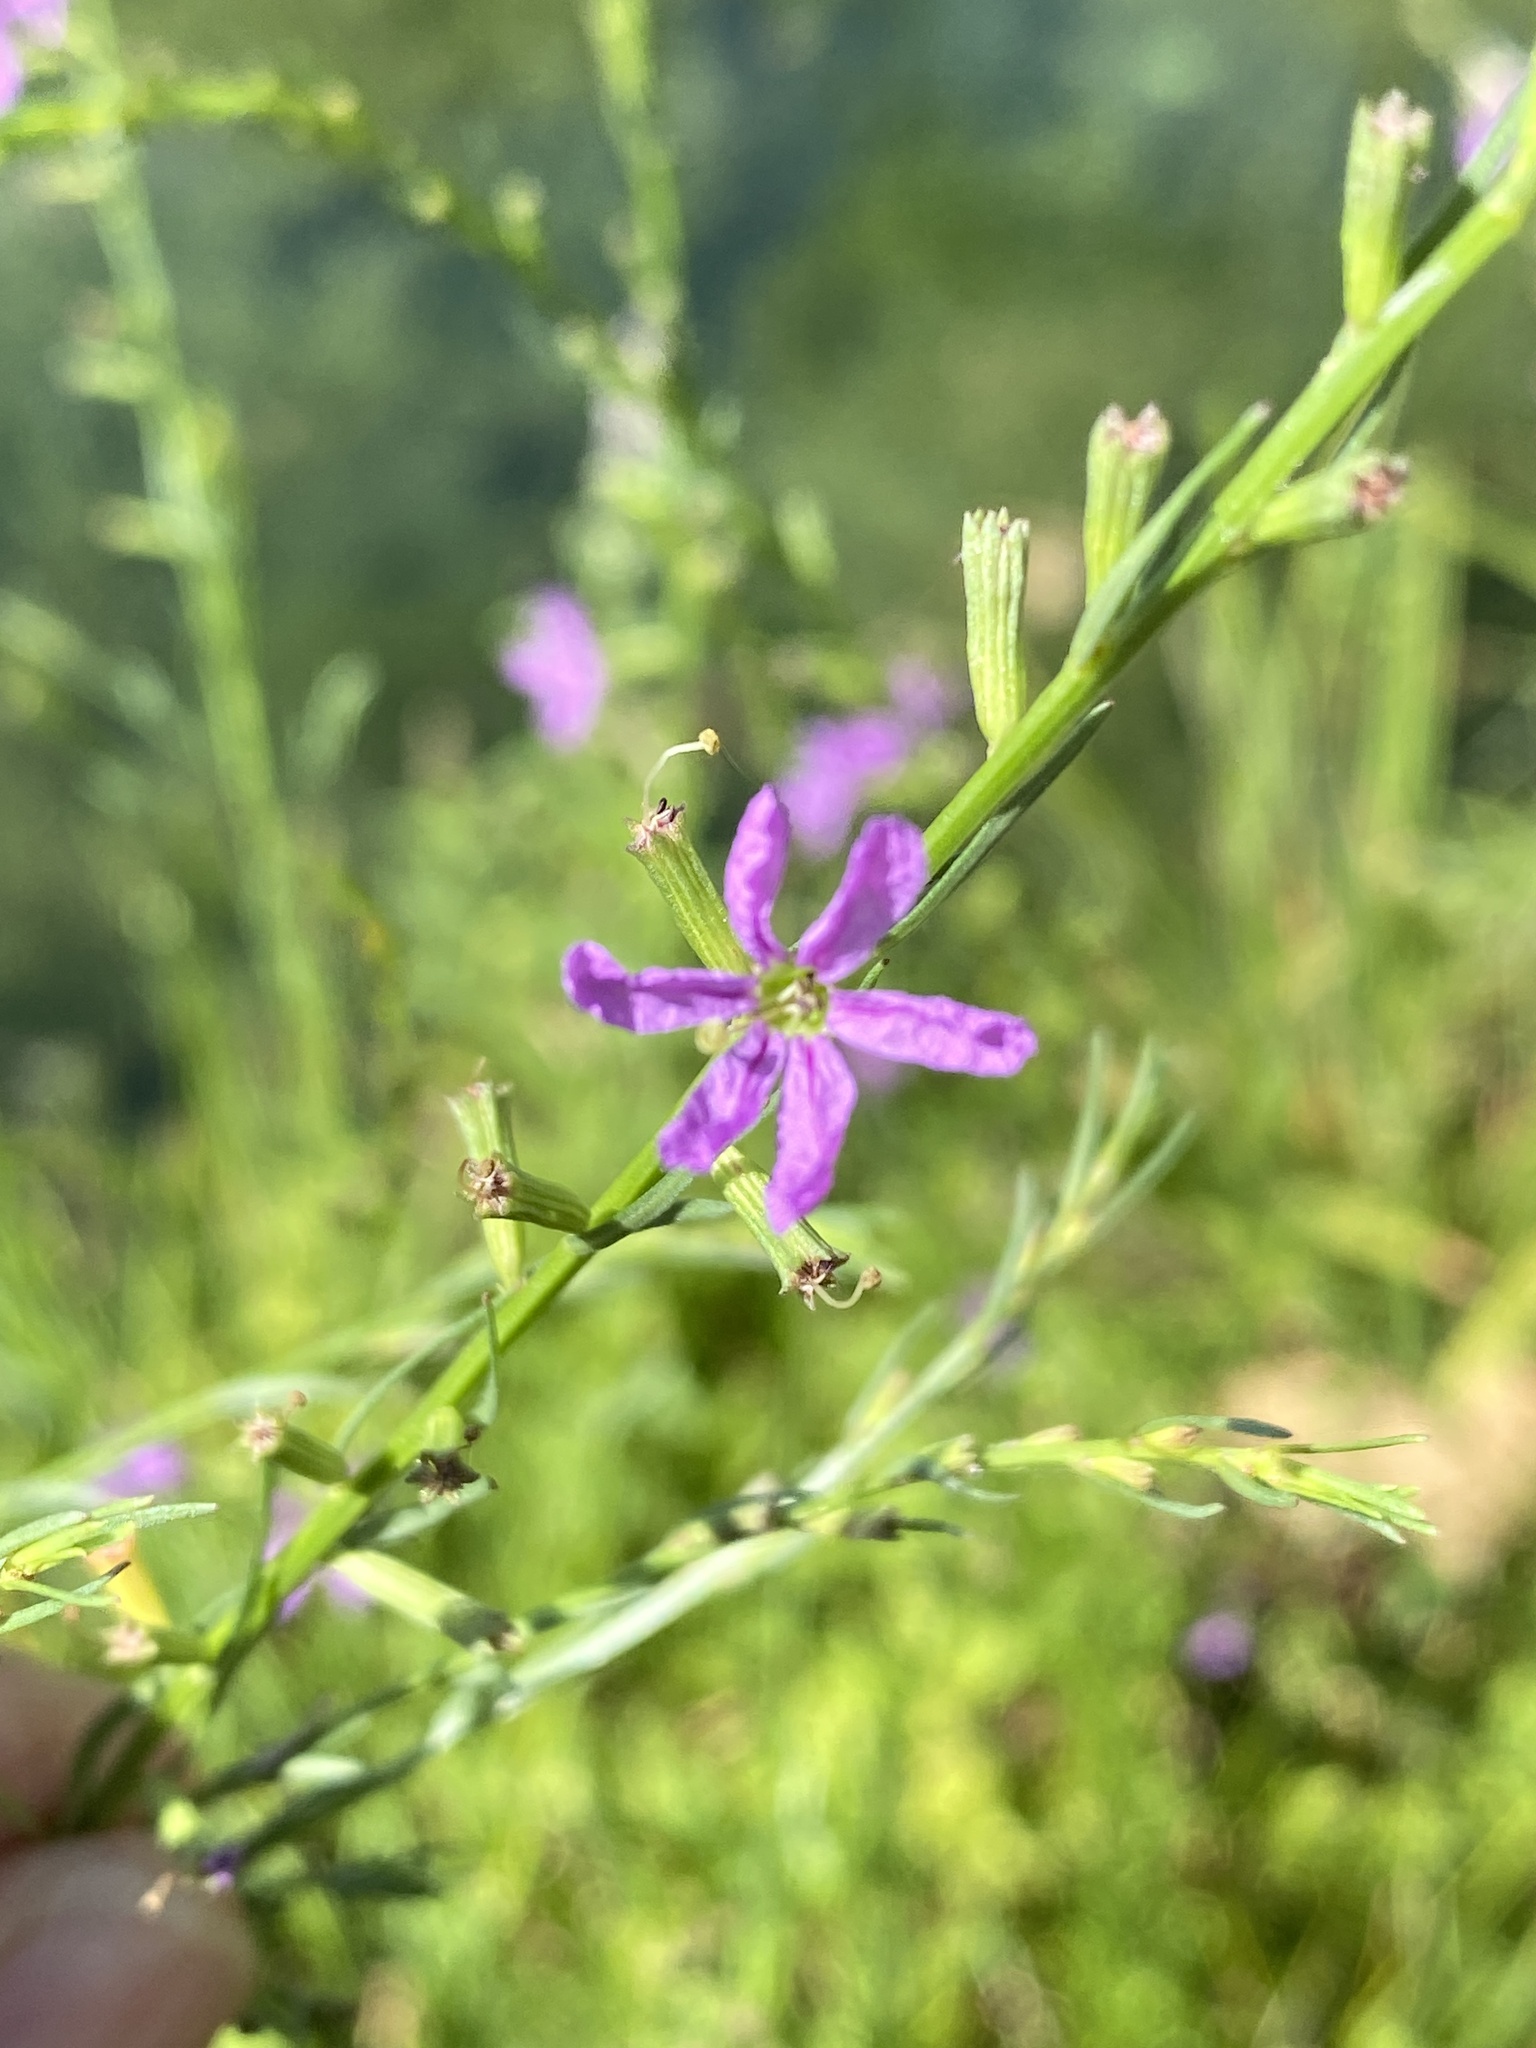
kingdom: Plantae
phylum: Tracheophyta
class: Magnoliopsida
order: Myrtales
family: Lythraceae
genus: Lythrum
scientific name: Lythrum californicum
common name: California loosestrife
